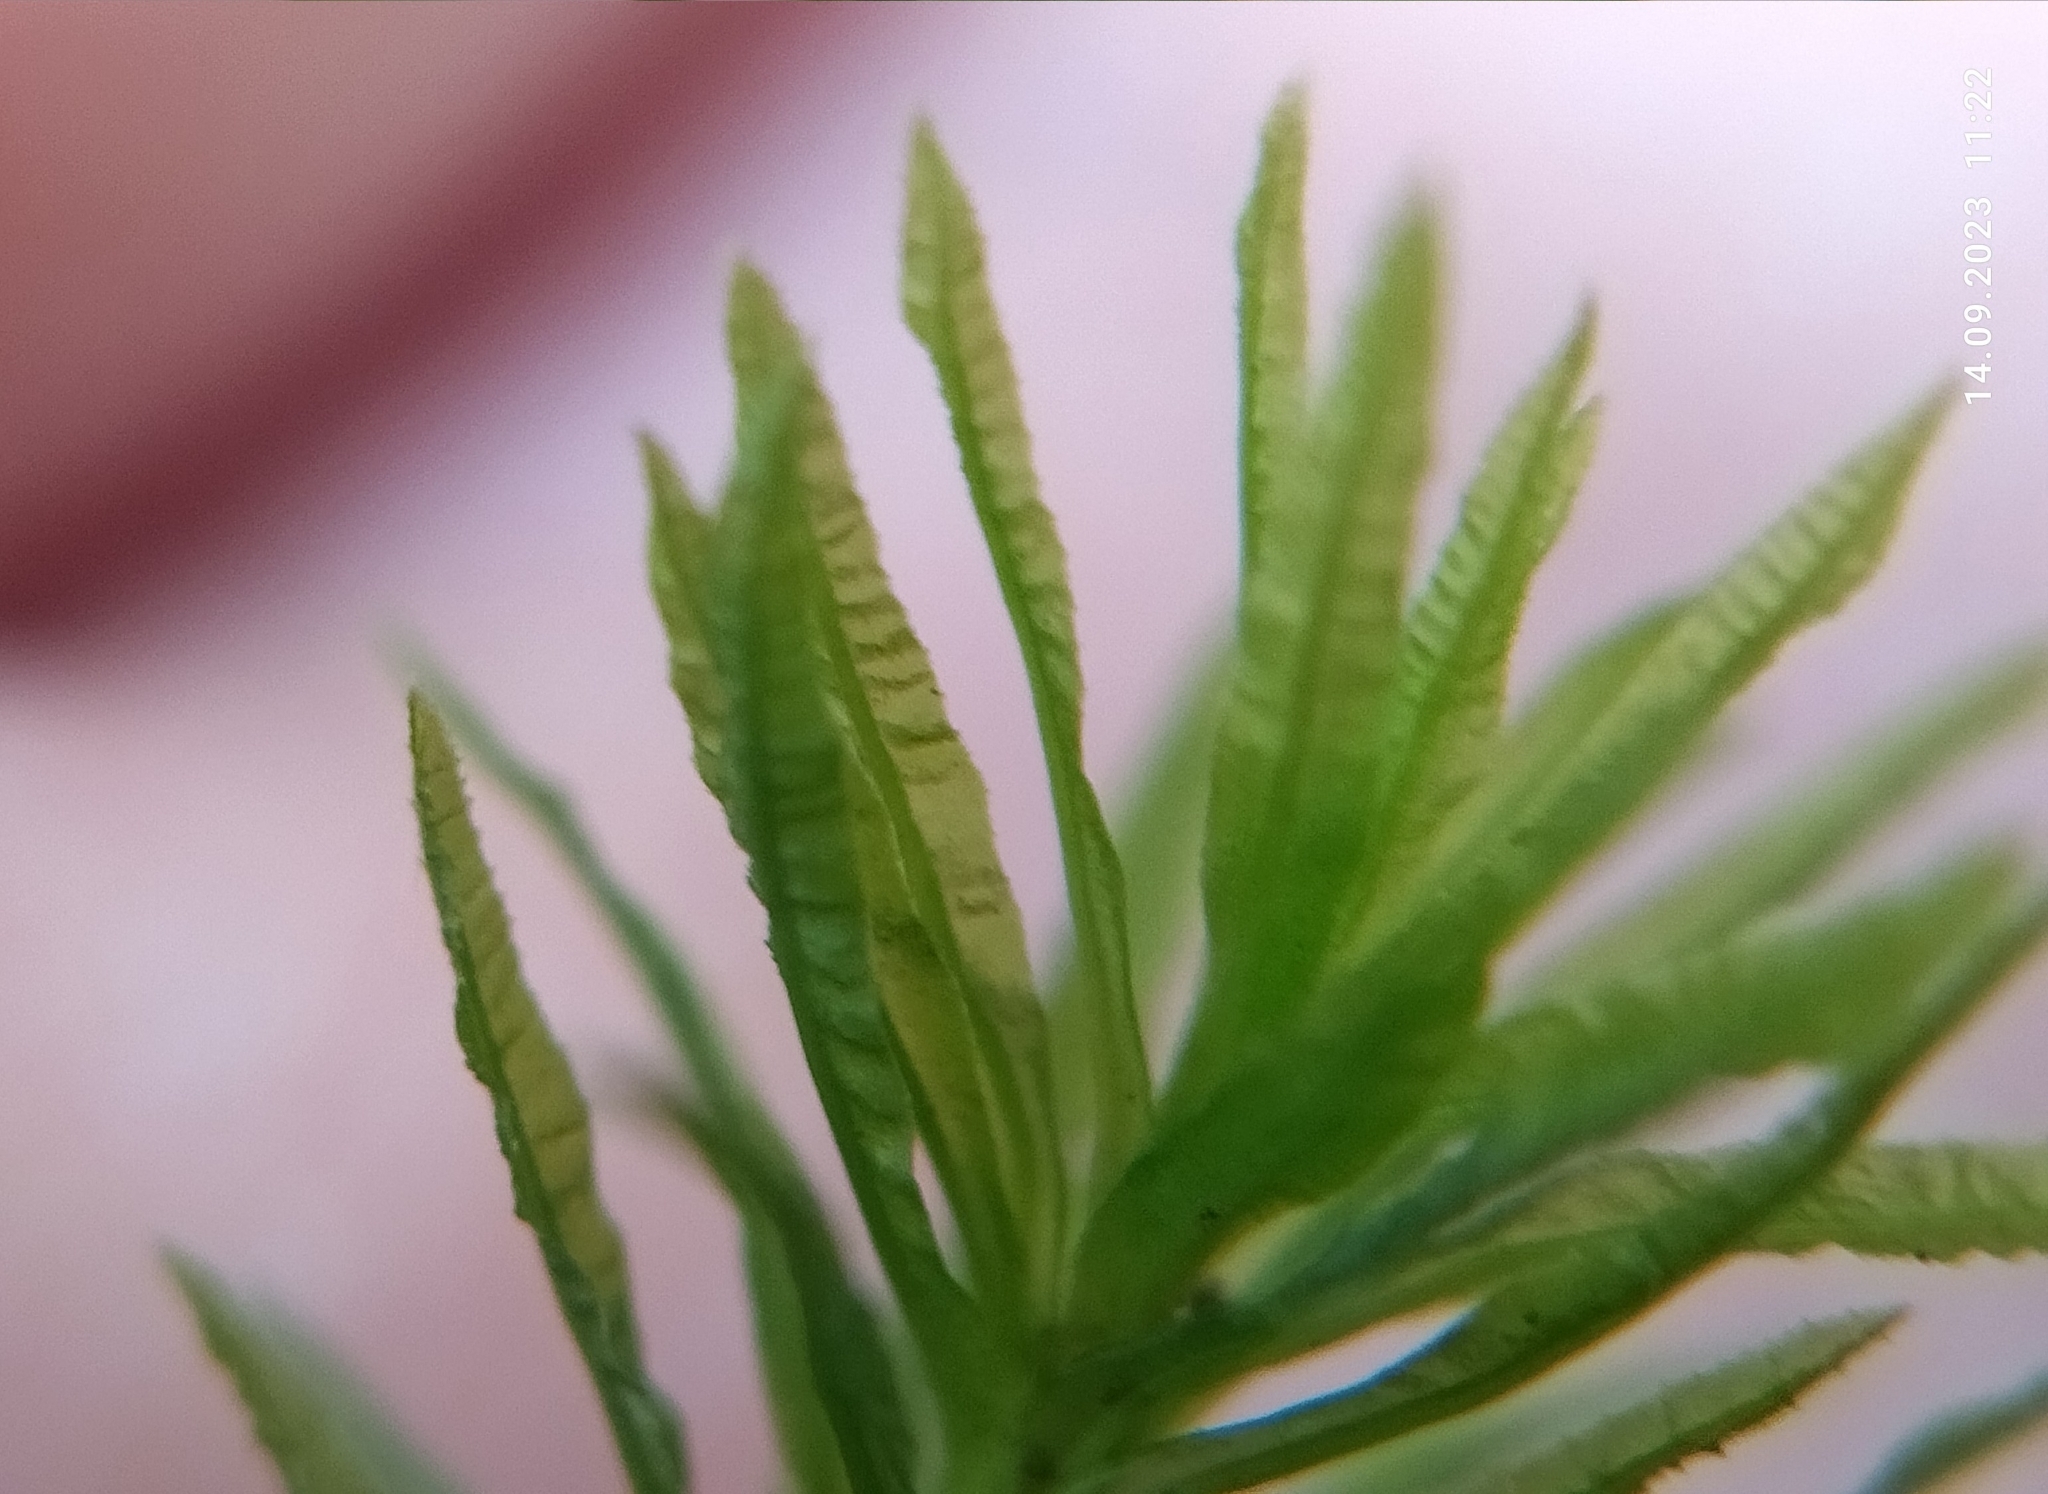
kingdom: Plantae
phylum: Bryophyta
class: Polytrichopsida
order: Polytrichales
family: Polytrichaceae
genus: Atrichum
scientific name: Atrichum undulatum
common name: Common smoothcap
